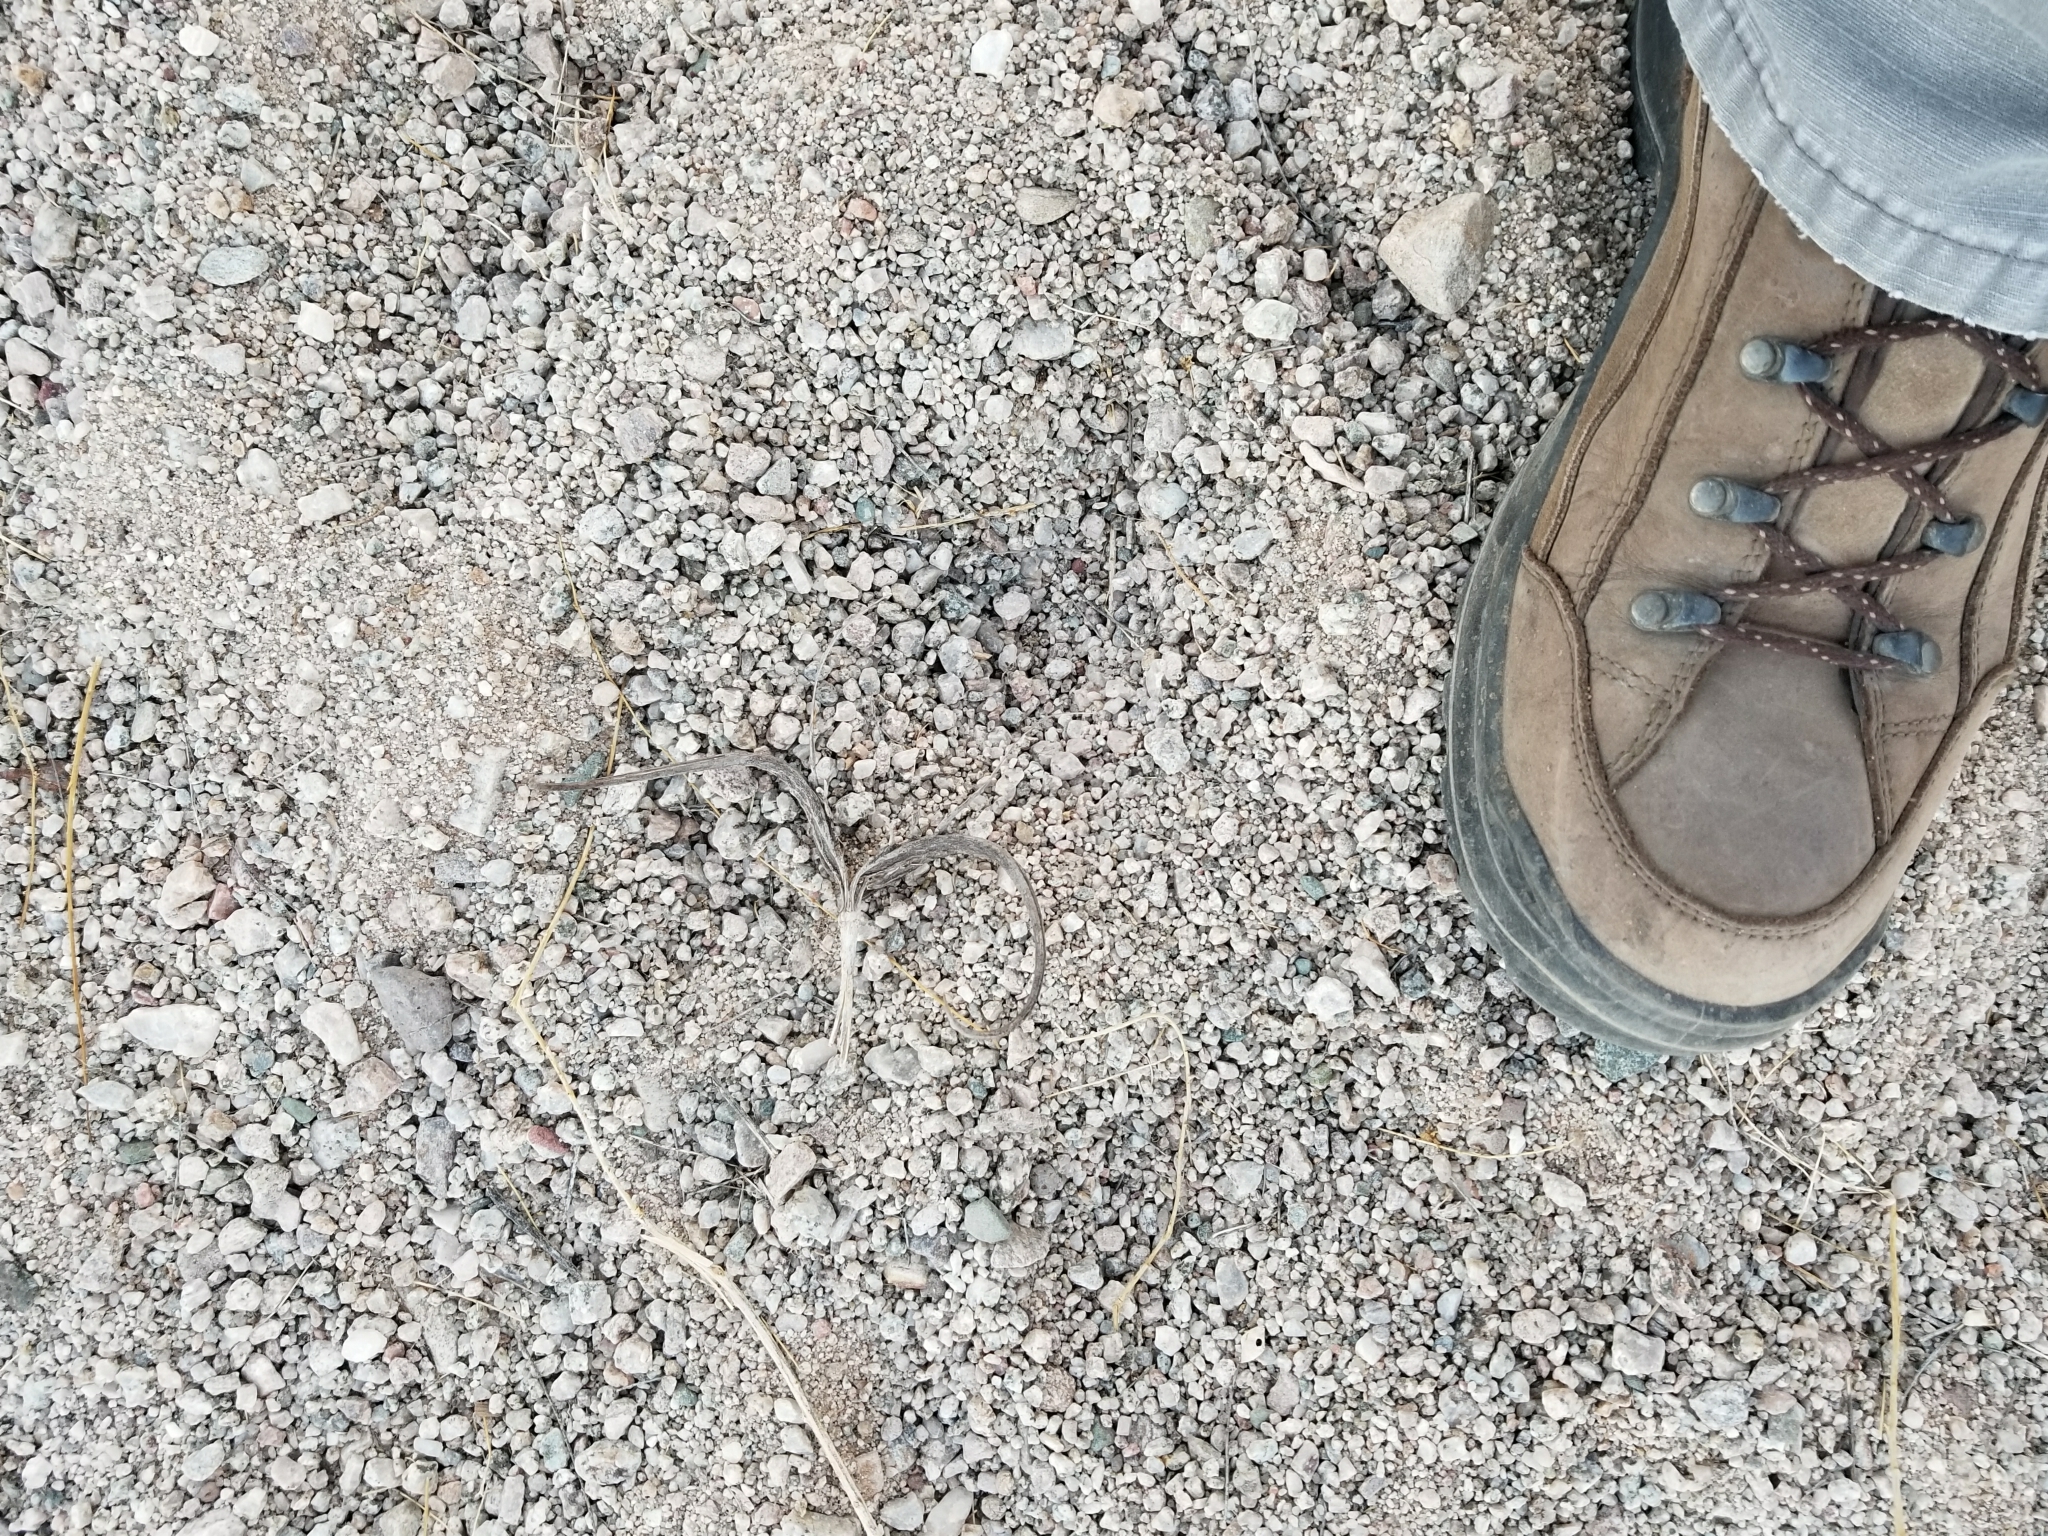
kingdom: Plantae
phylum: Tracheophyta
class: Magnoliopsida
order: Lamiales
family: Martyniaceae
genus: Proboscidea
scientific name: Proboscidea althaeifolia
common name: Desert unicorn-plant
